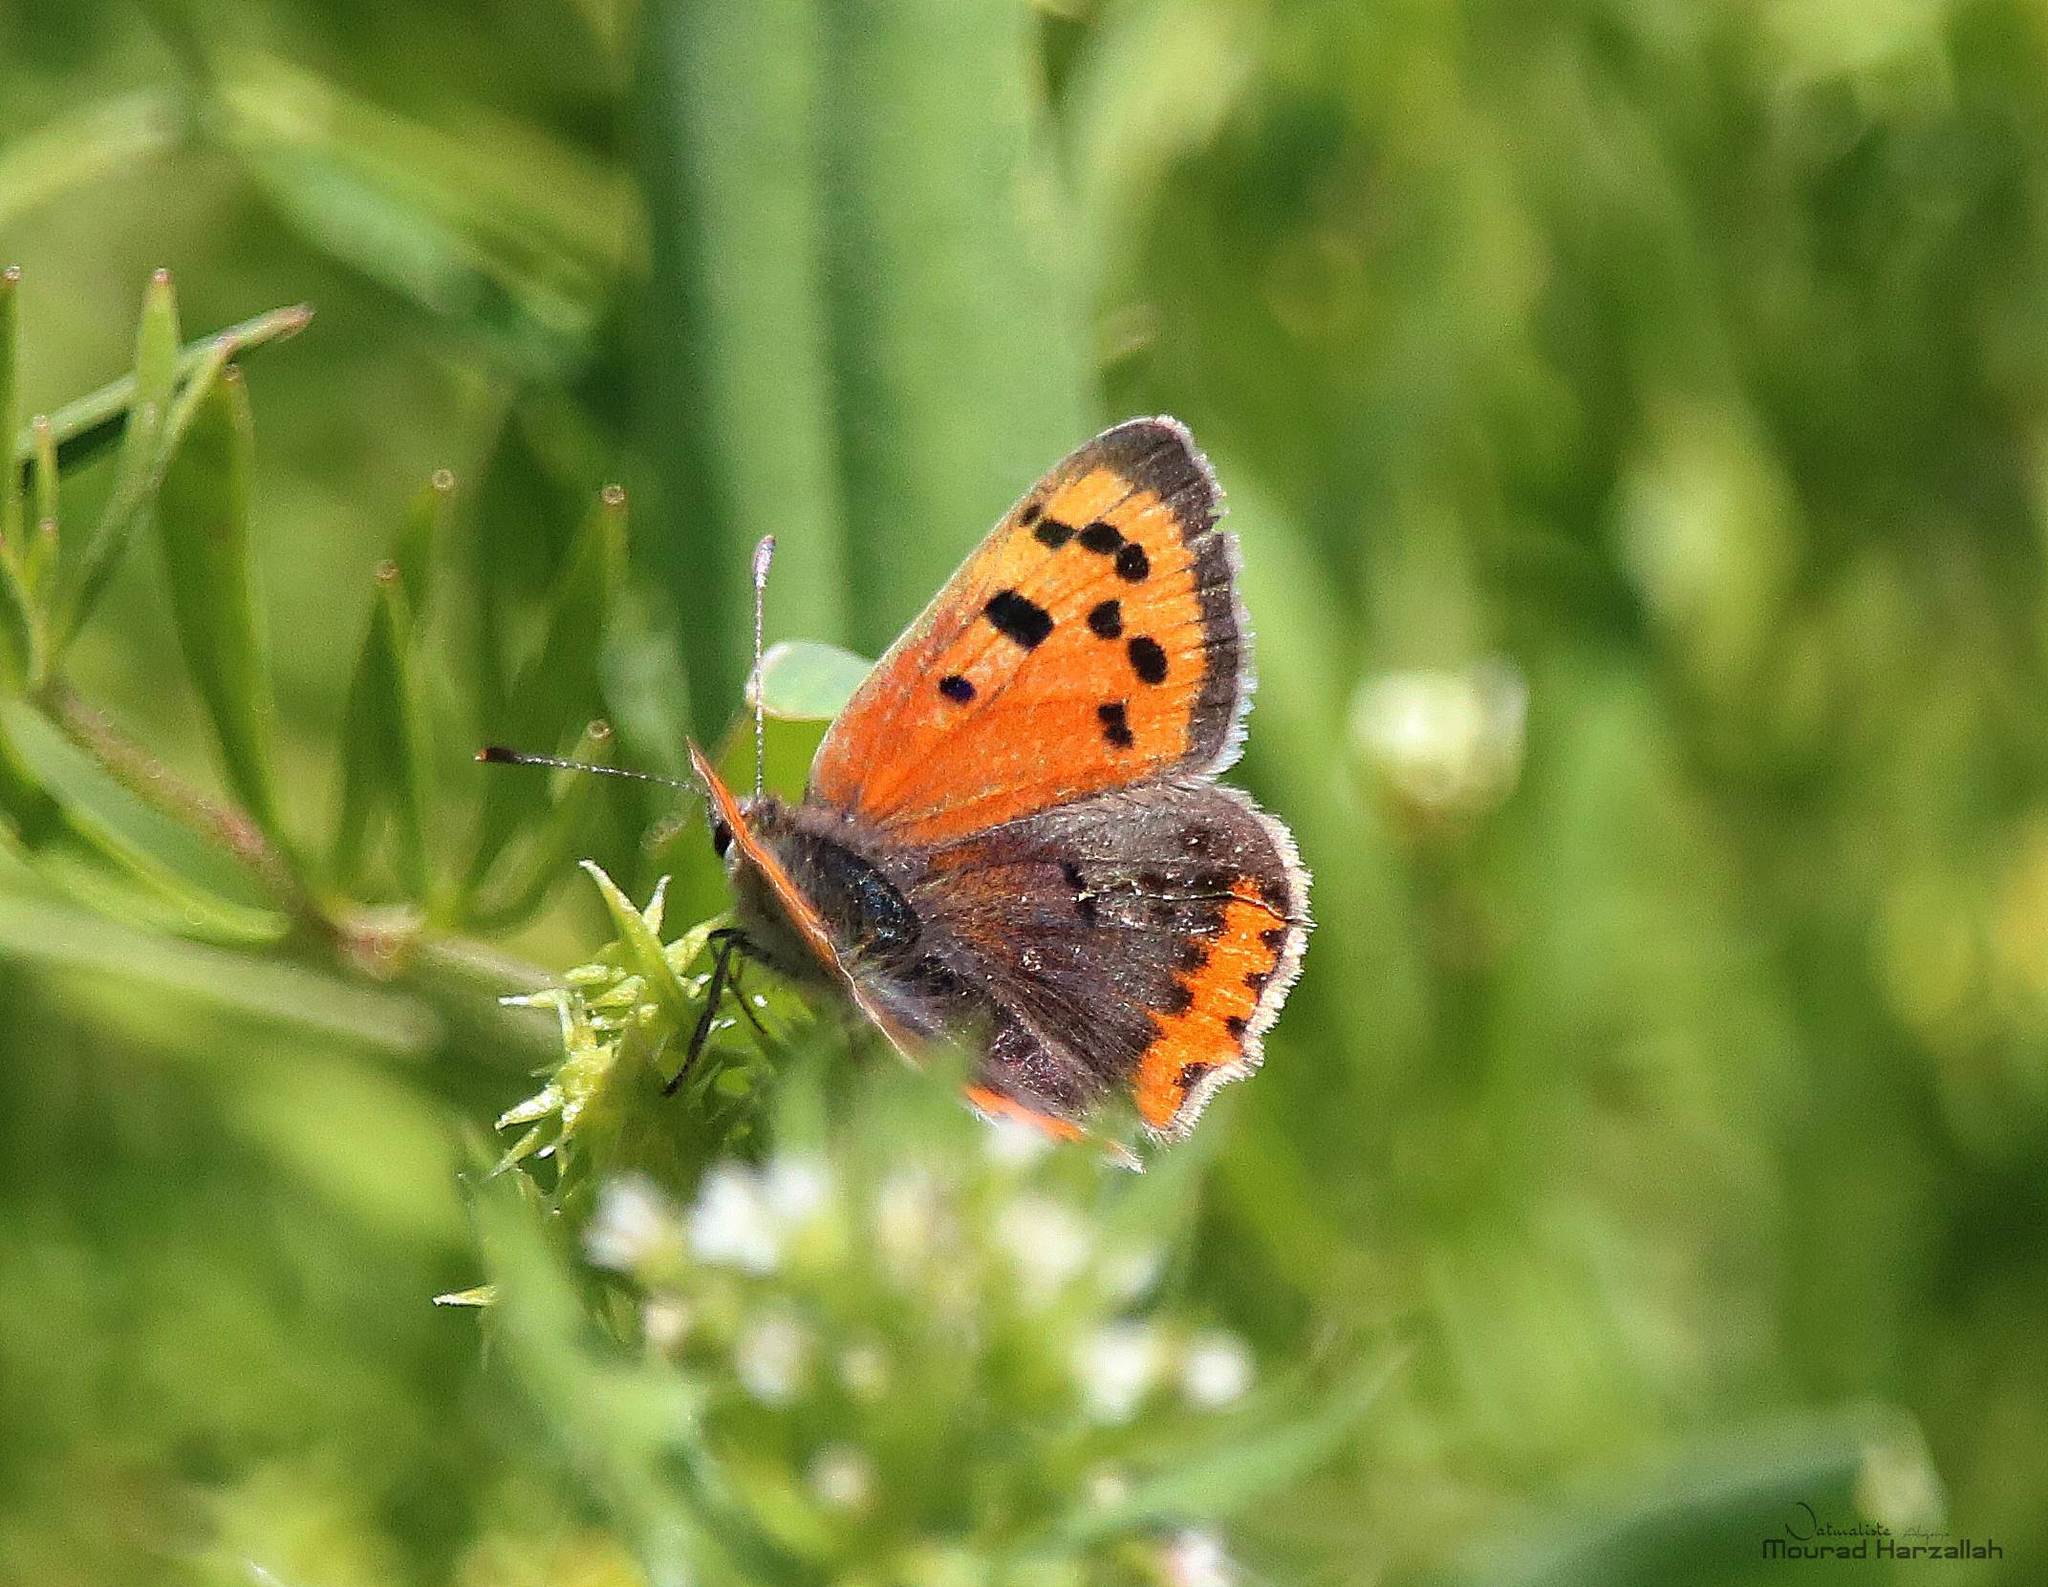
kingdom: Animalia
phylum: Arthropoda
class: Insecta
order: Lepidoptera
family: Lycaenidae
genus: Lycaena
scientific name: Lycaena phlaeas
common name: Small copper
